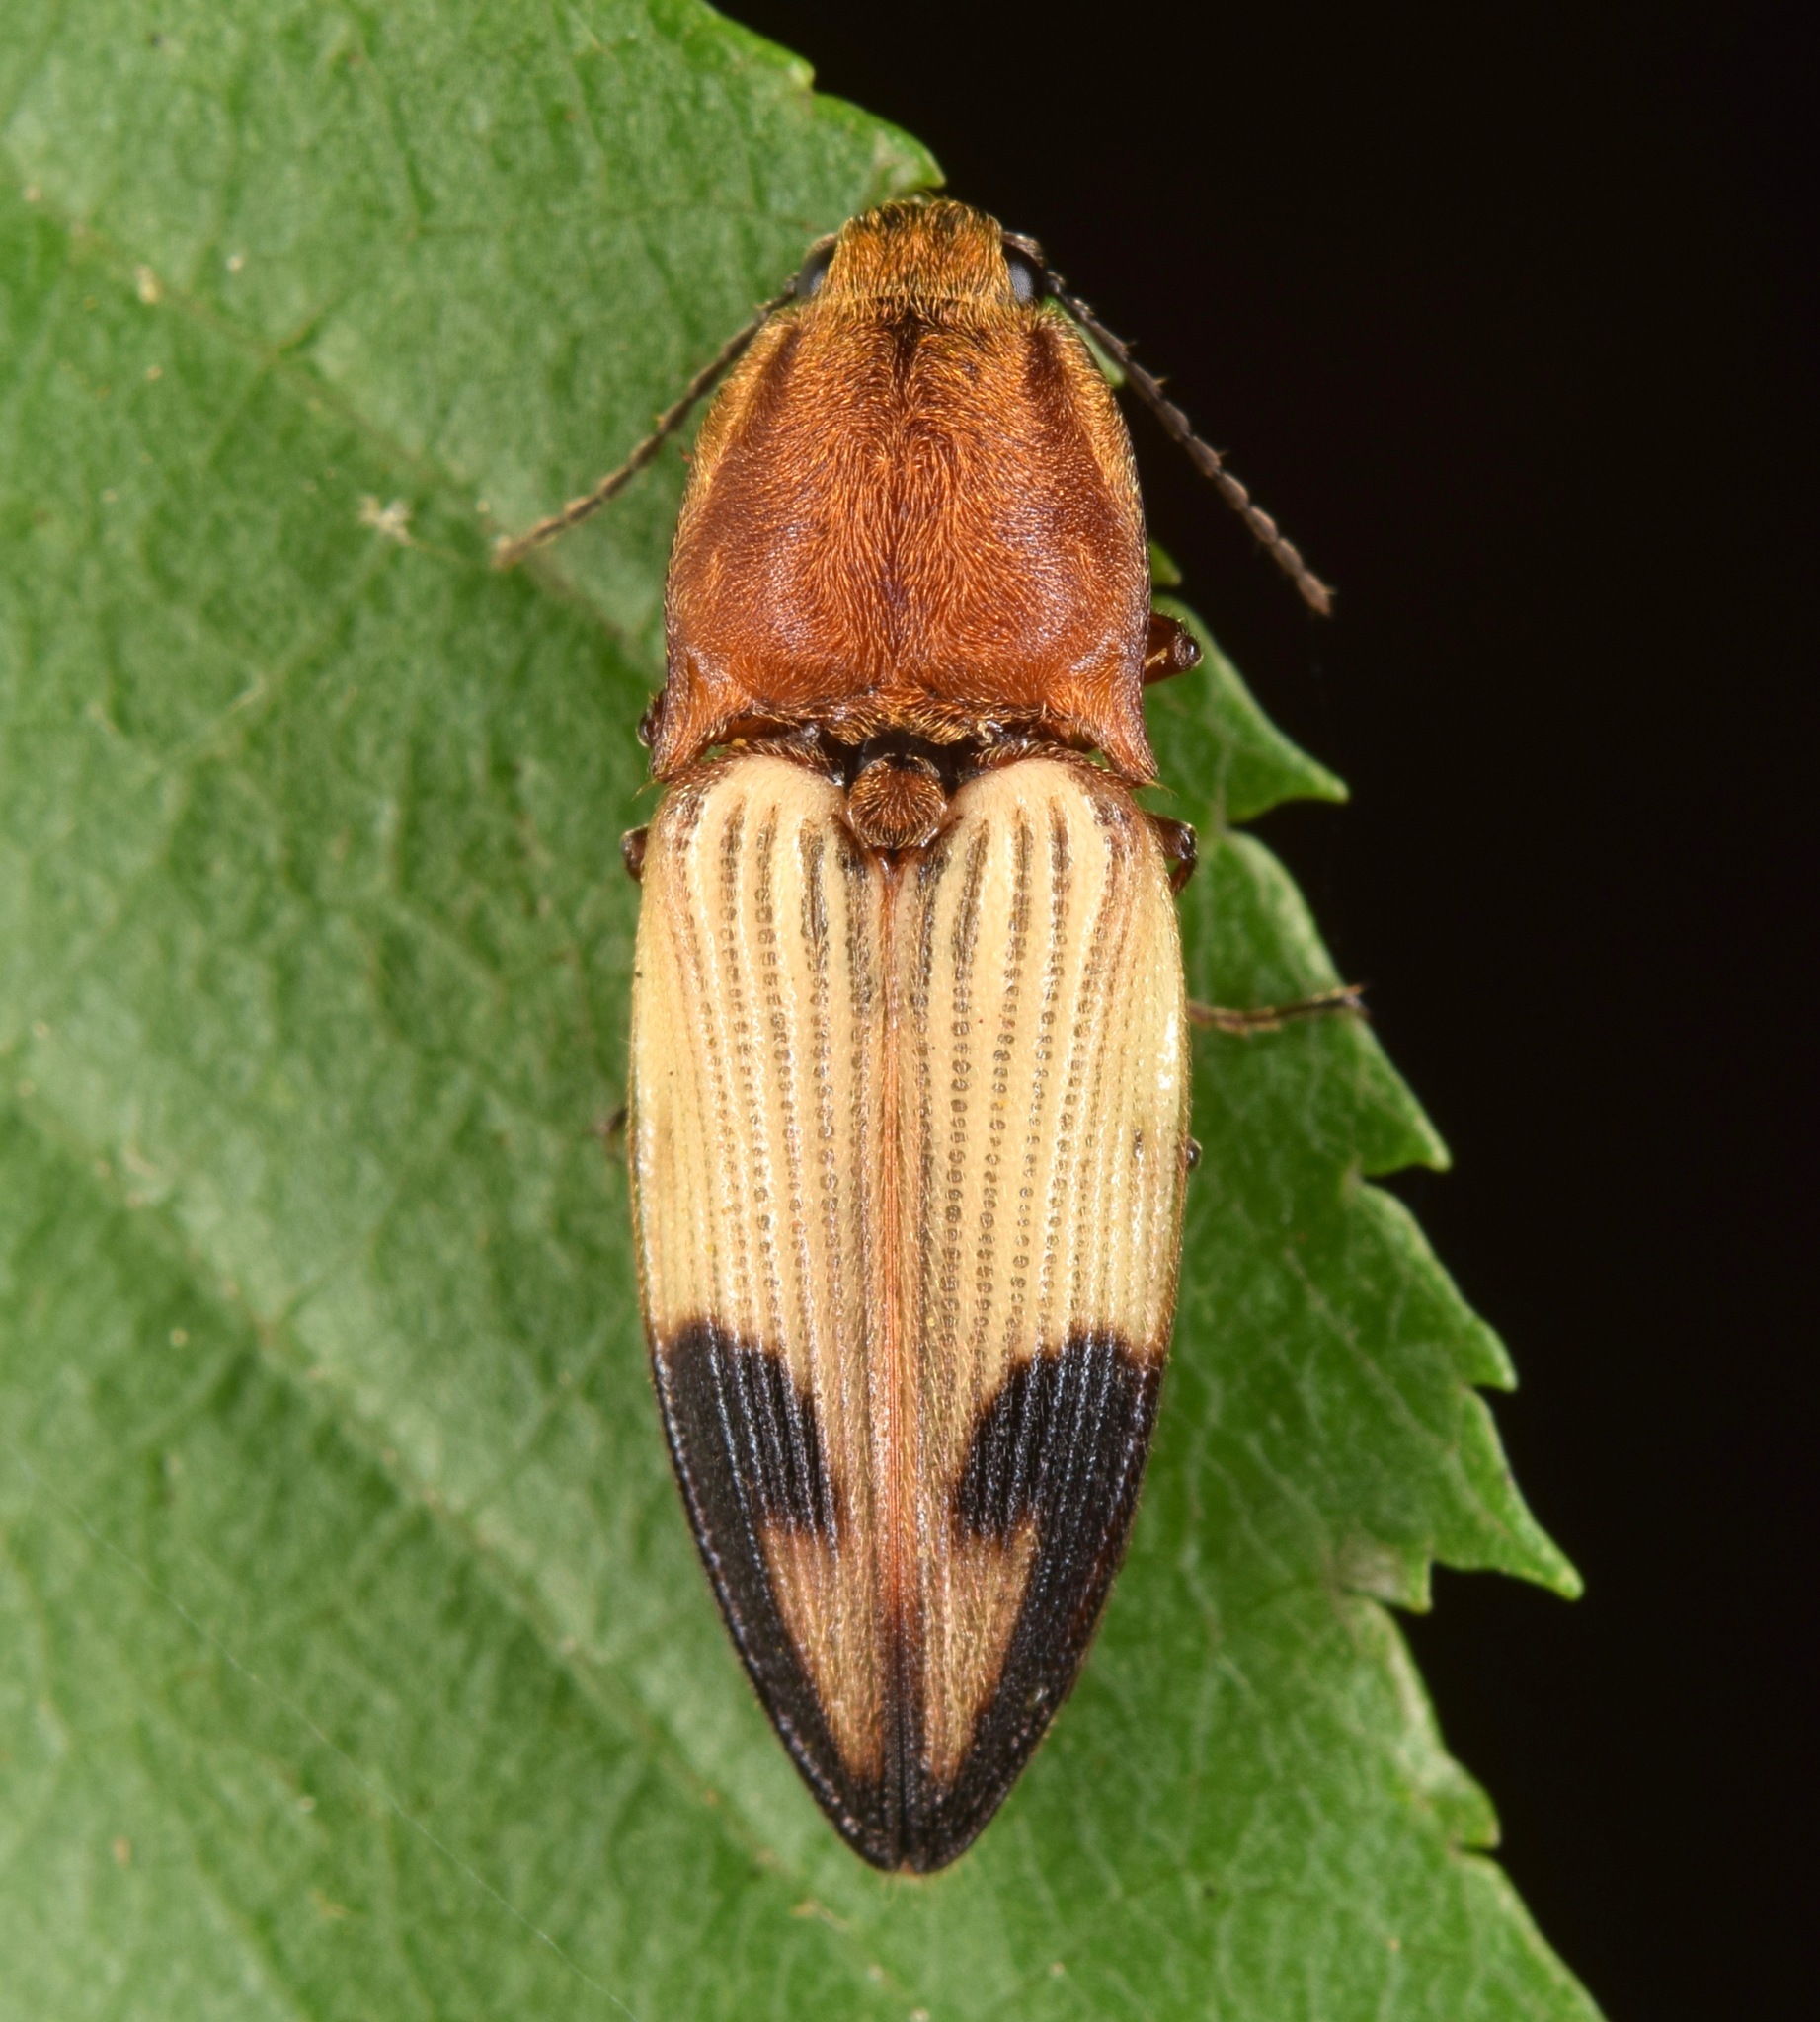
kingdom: Animalia
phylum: Arthropoda
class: Insecta
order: Coleoptera
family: Elateridae
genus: Stropenron
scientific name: Stropenron hamata
